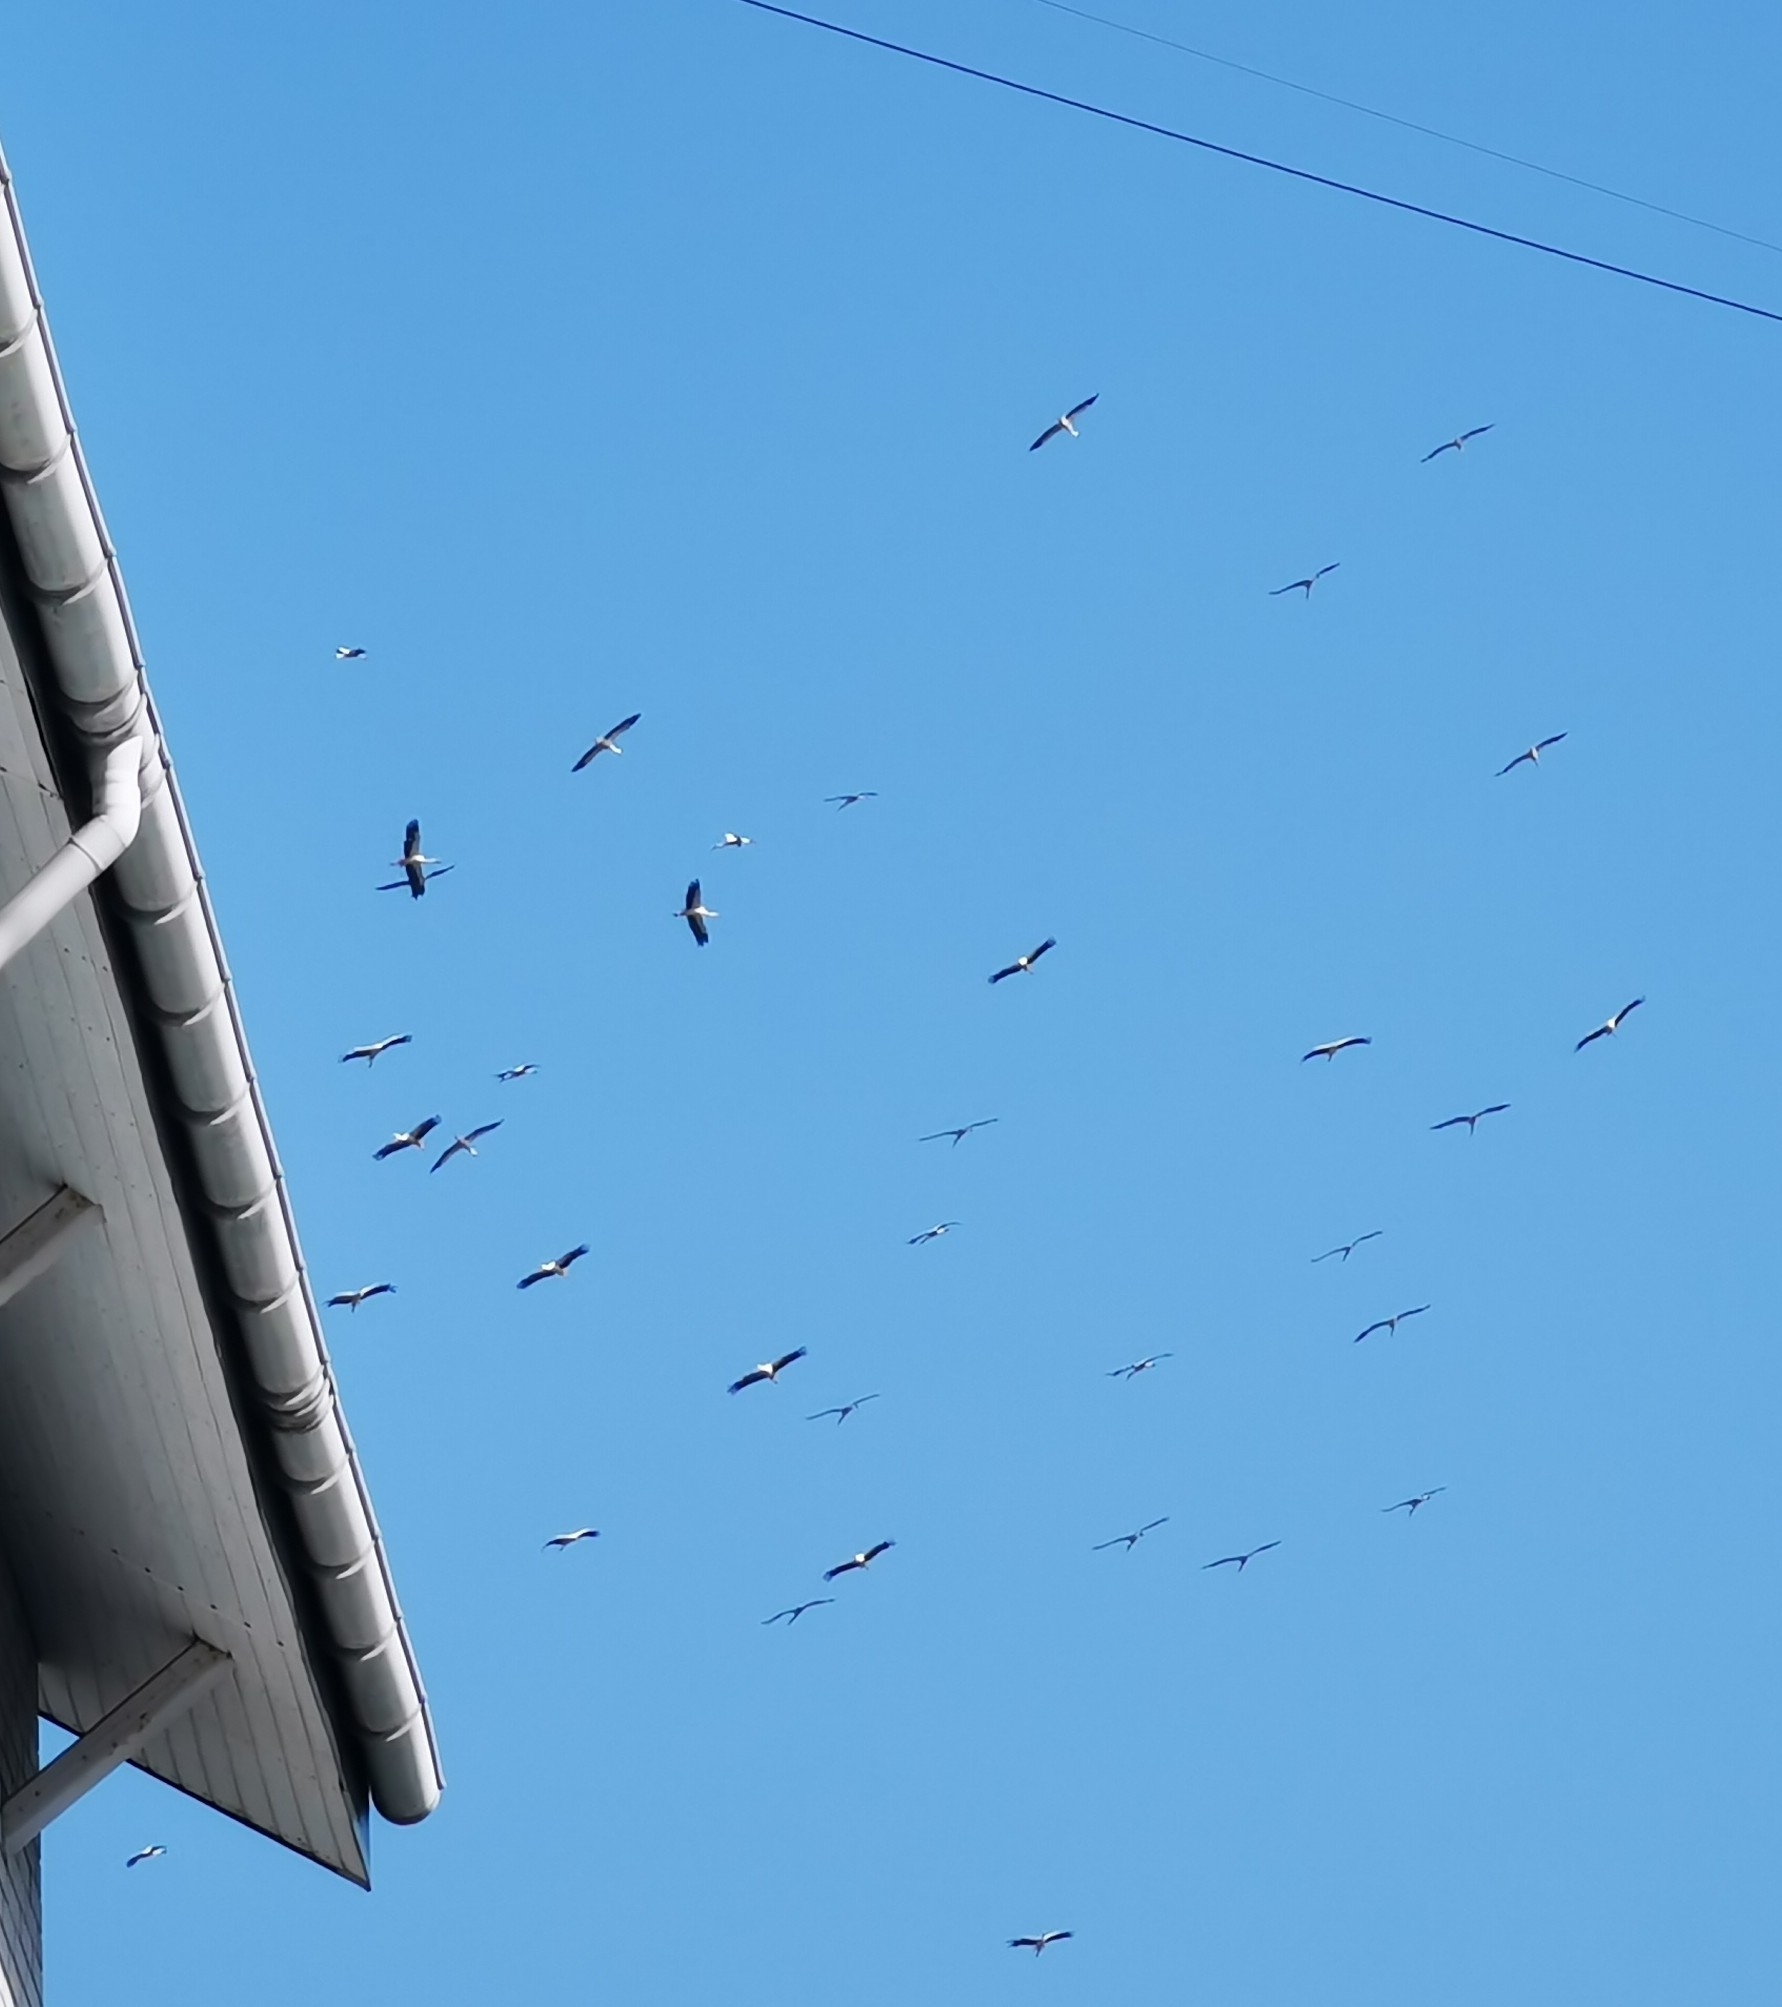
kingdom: Animalia
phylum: Chordata
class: Aves
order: Ciconiiformes
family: Ciconiidae
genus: Ciconia
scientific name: Ciconia ciconia
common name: White stork
